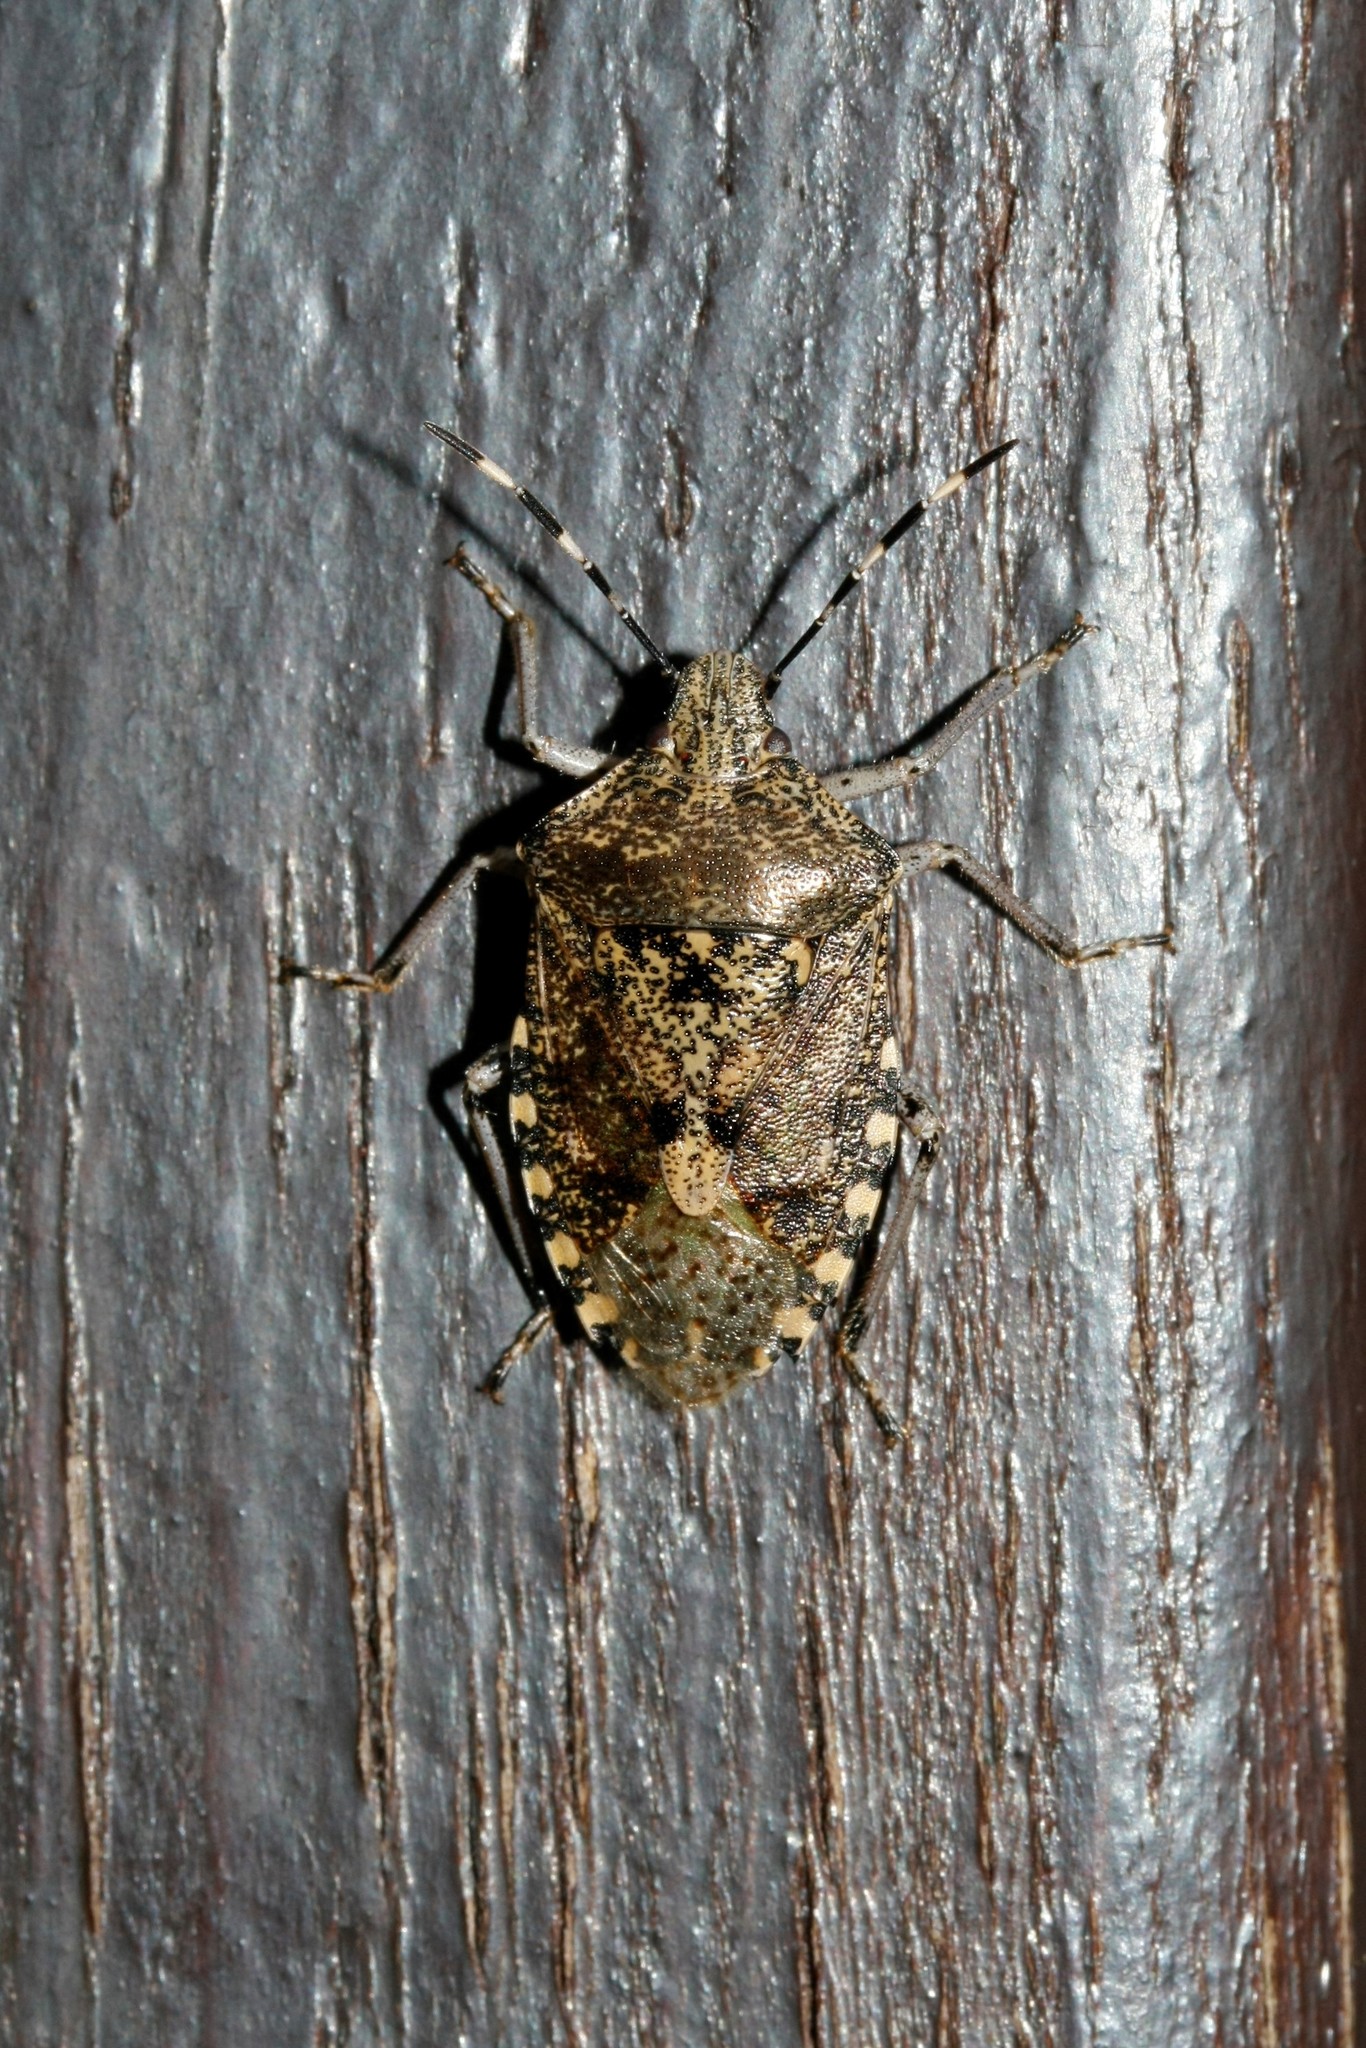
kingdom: Animalia
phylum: Arthropoda
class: Insecta
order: Hemiptera
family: Pentatomidae
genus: Rhaphigaster
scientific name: Rhaphigaster nebulosa
